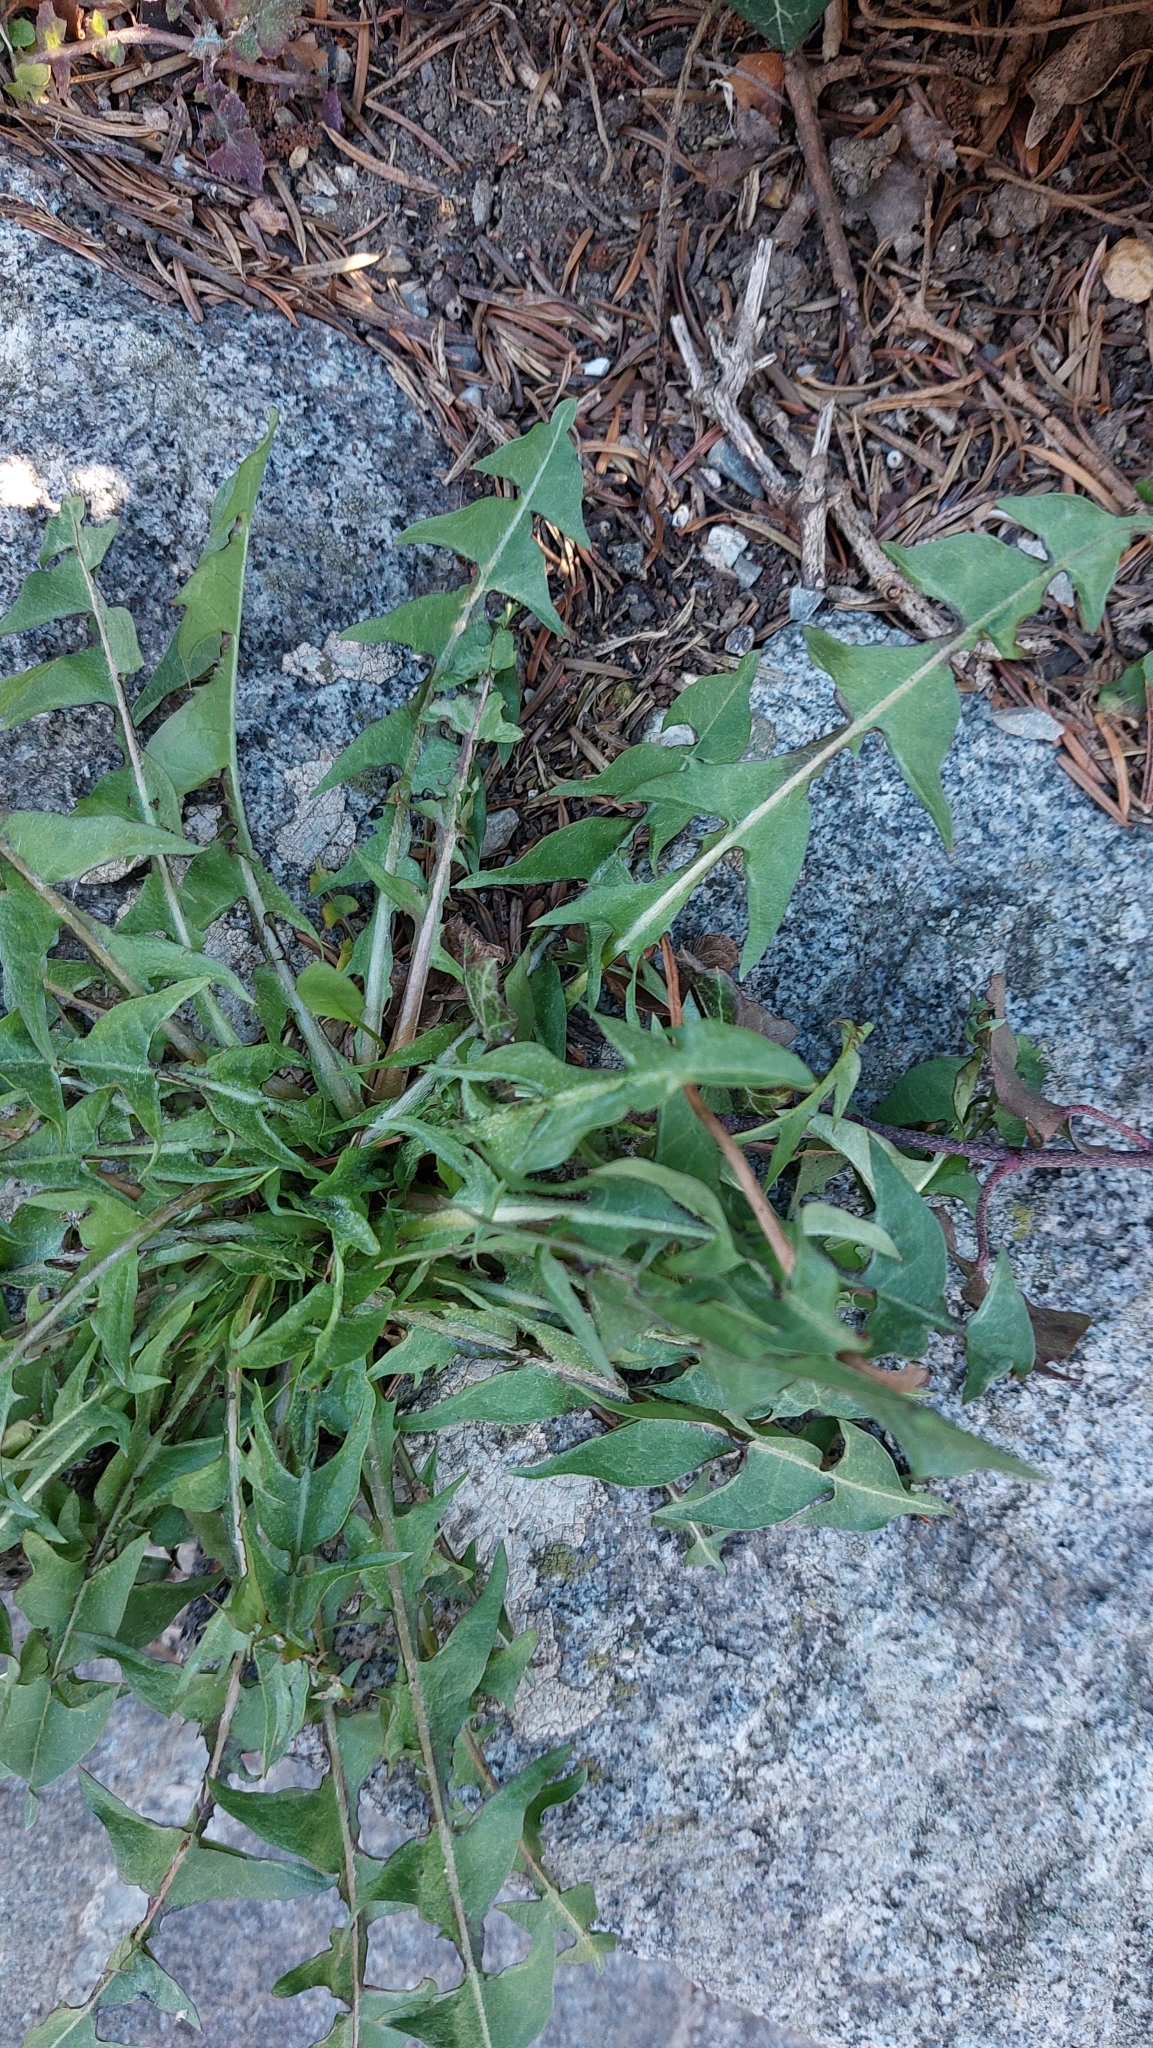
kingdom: Plantae
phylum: Tracheophyta
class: Magnoliopsida
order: Asterales
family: Asteraceae
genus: Taraxacum
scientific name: Taraxacum
